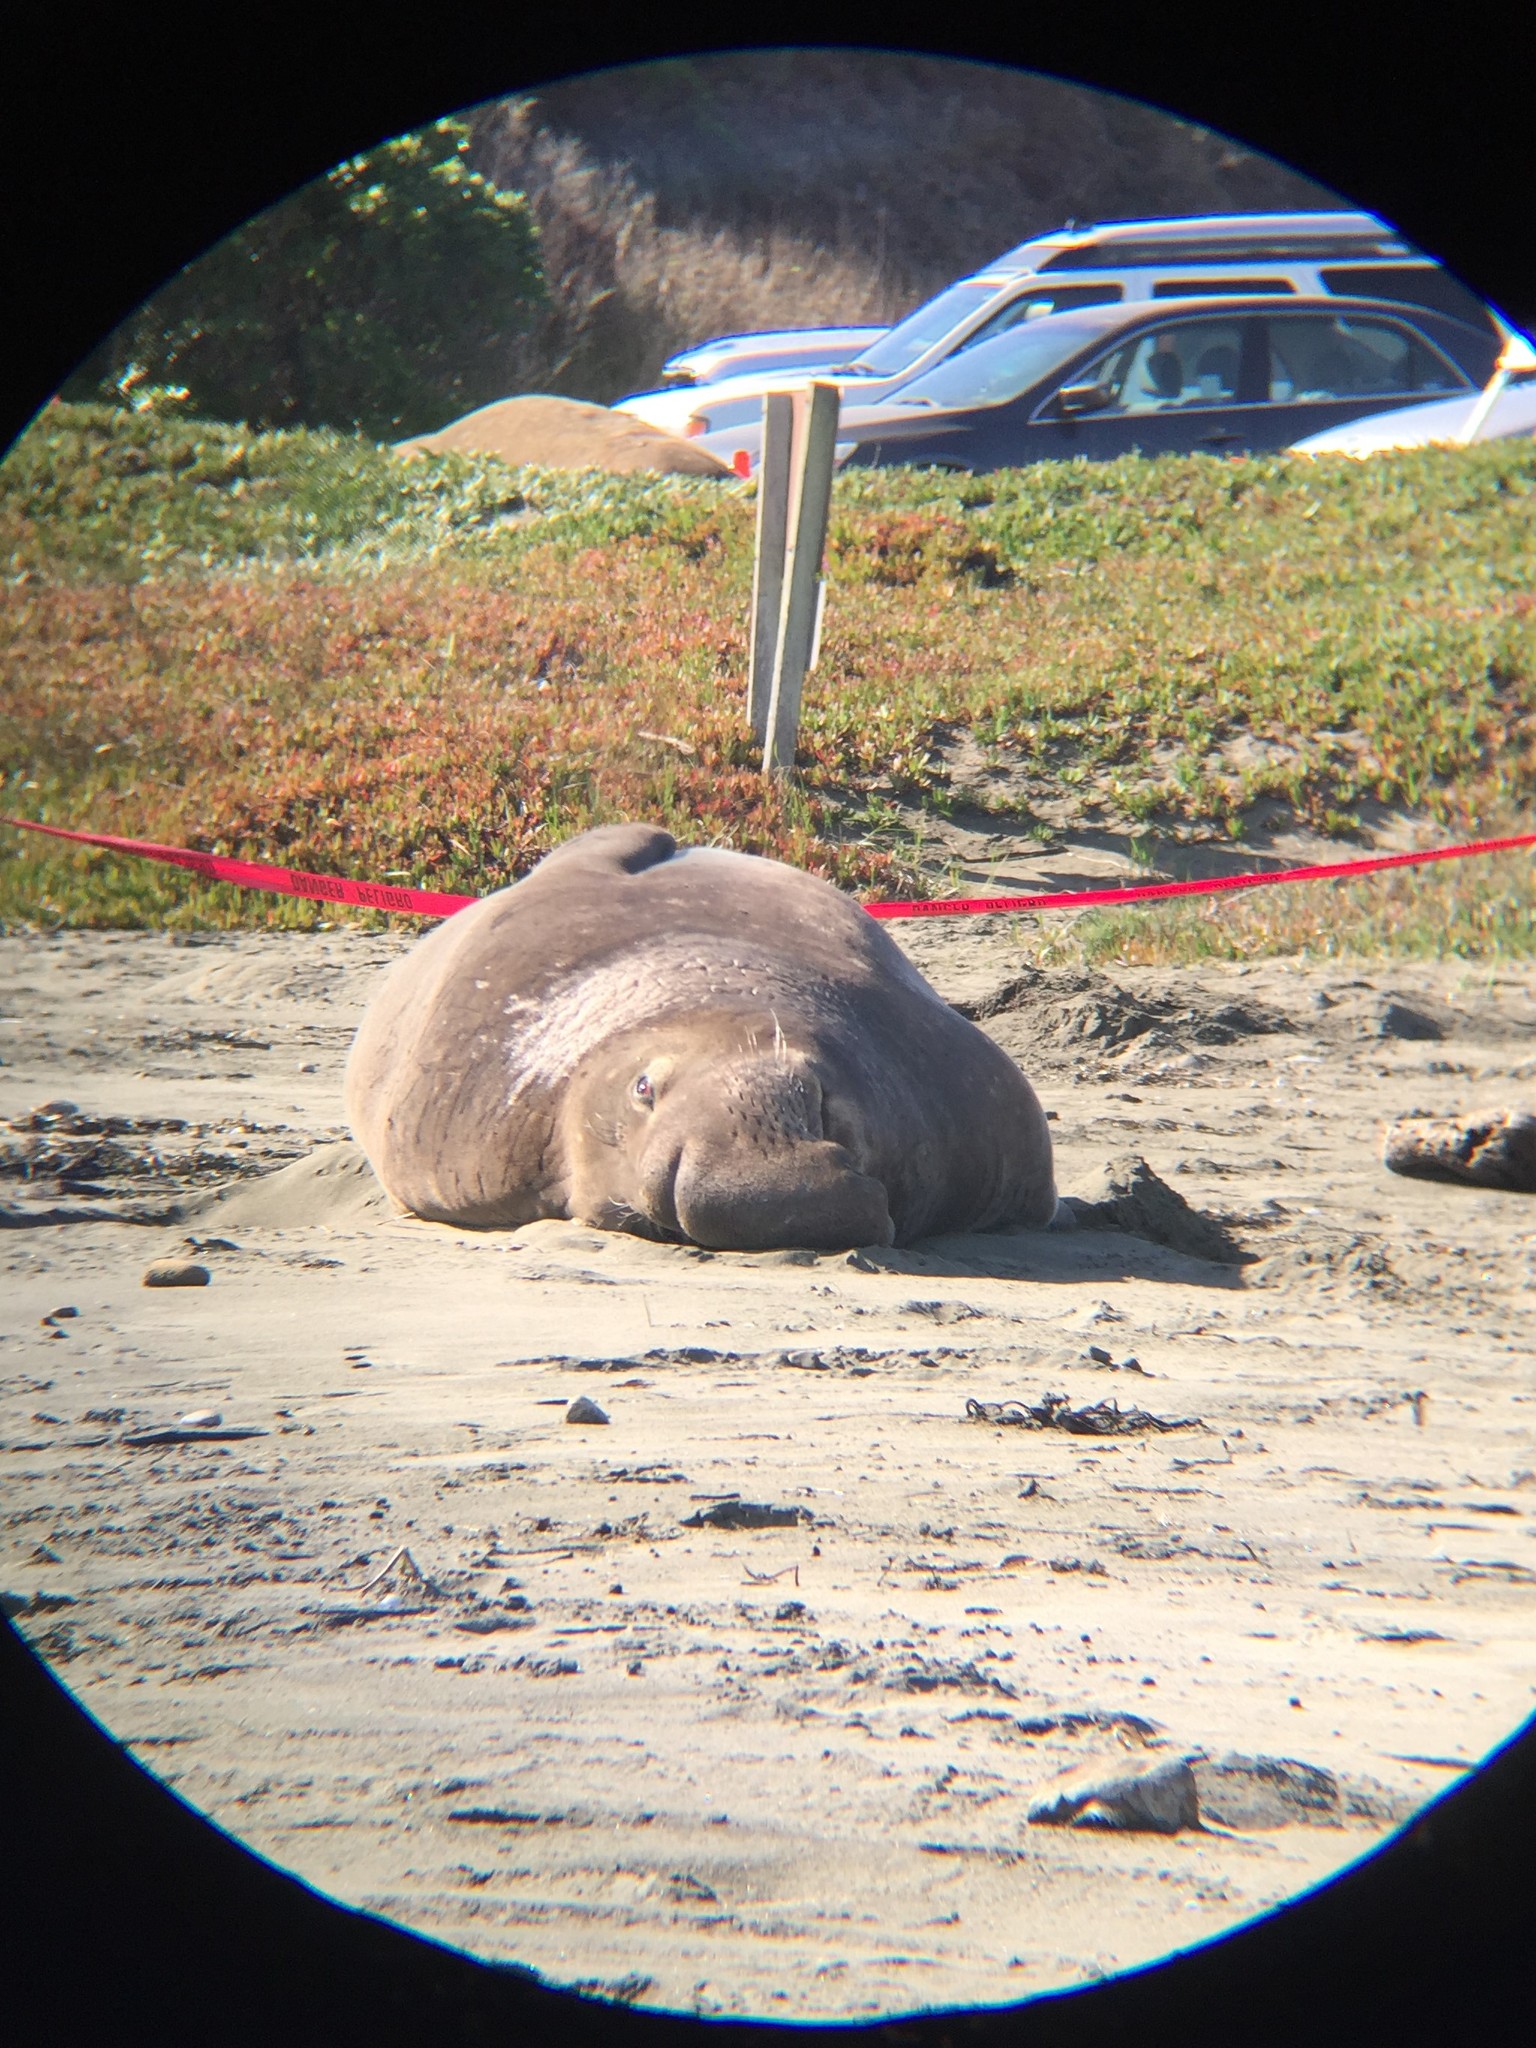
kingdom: Animalia
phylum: Chordata
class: Mammalia
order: Carnivora
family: Phocidae
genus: Mirounga
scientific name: Mirounga angustirostris
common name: Northern elephant seal
